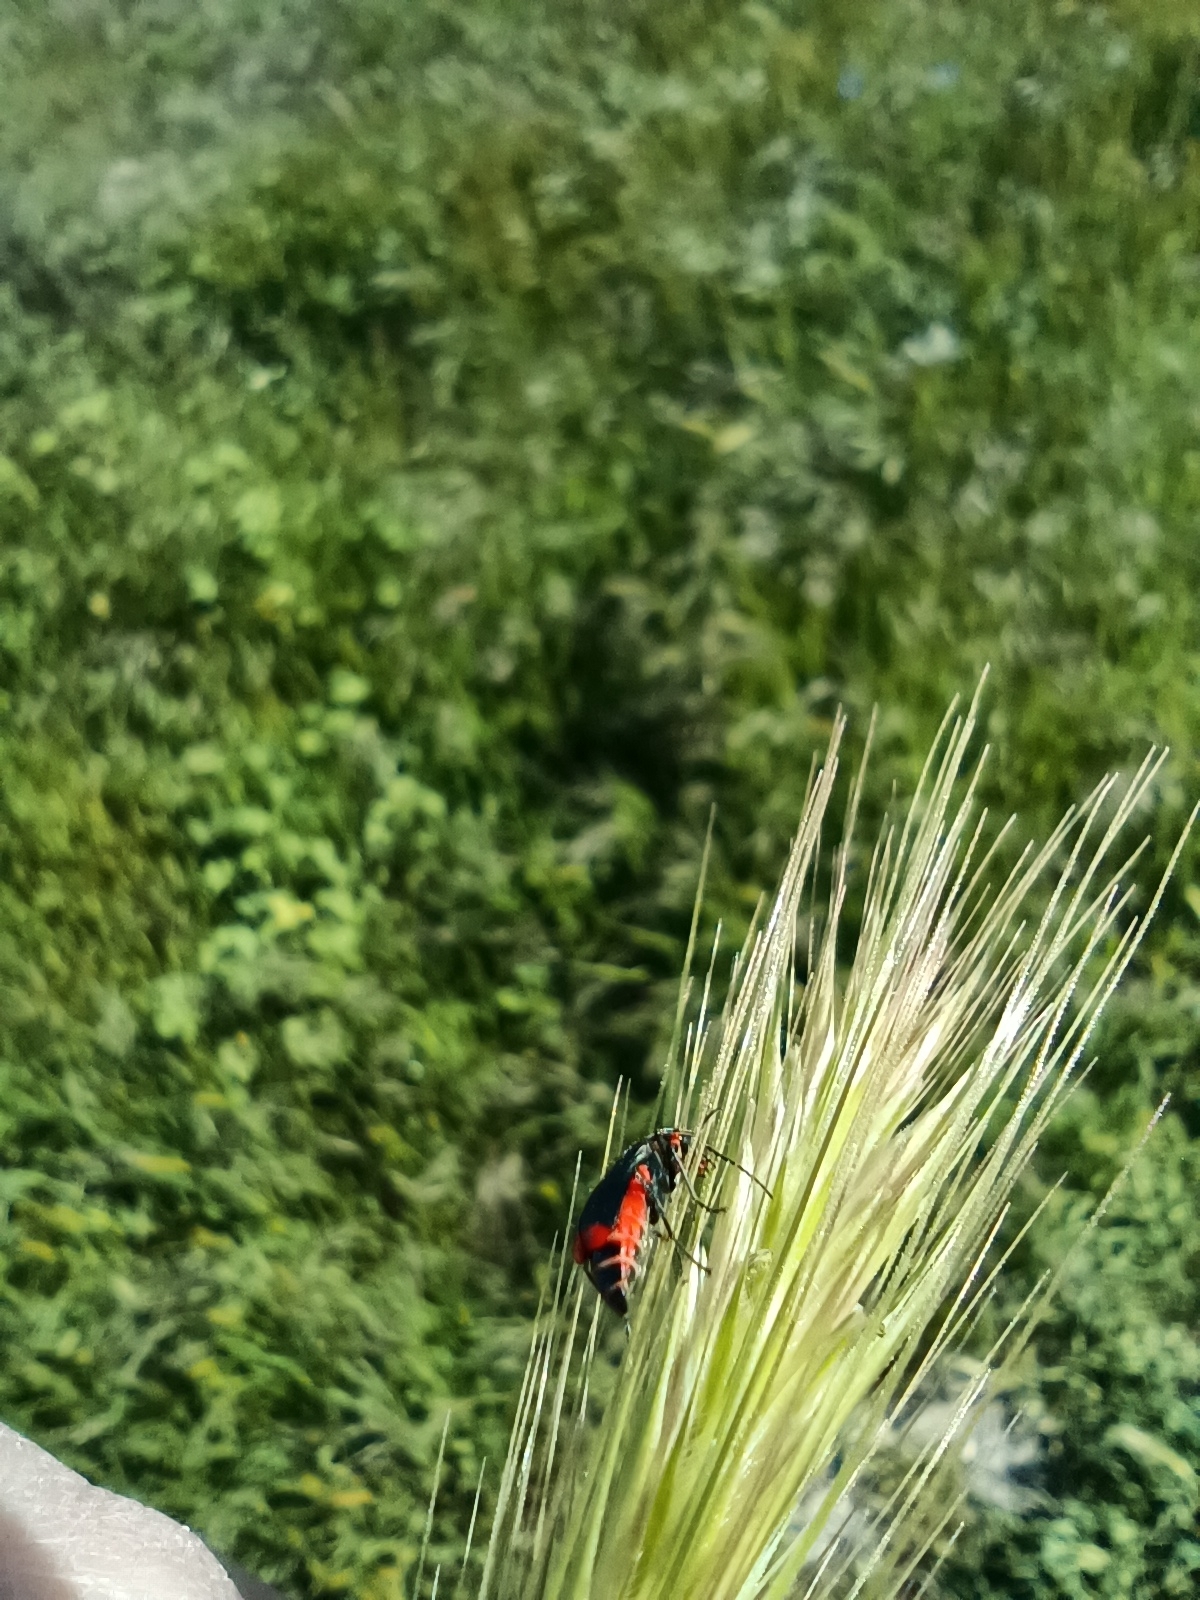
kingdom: Animalia
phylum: Arthropoda
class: Insecta
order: Coleoptera
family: Melyridae
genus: Malachius
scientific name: Malachius bipustulatus
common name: Malachite beetle
